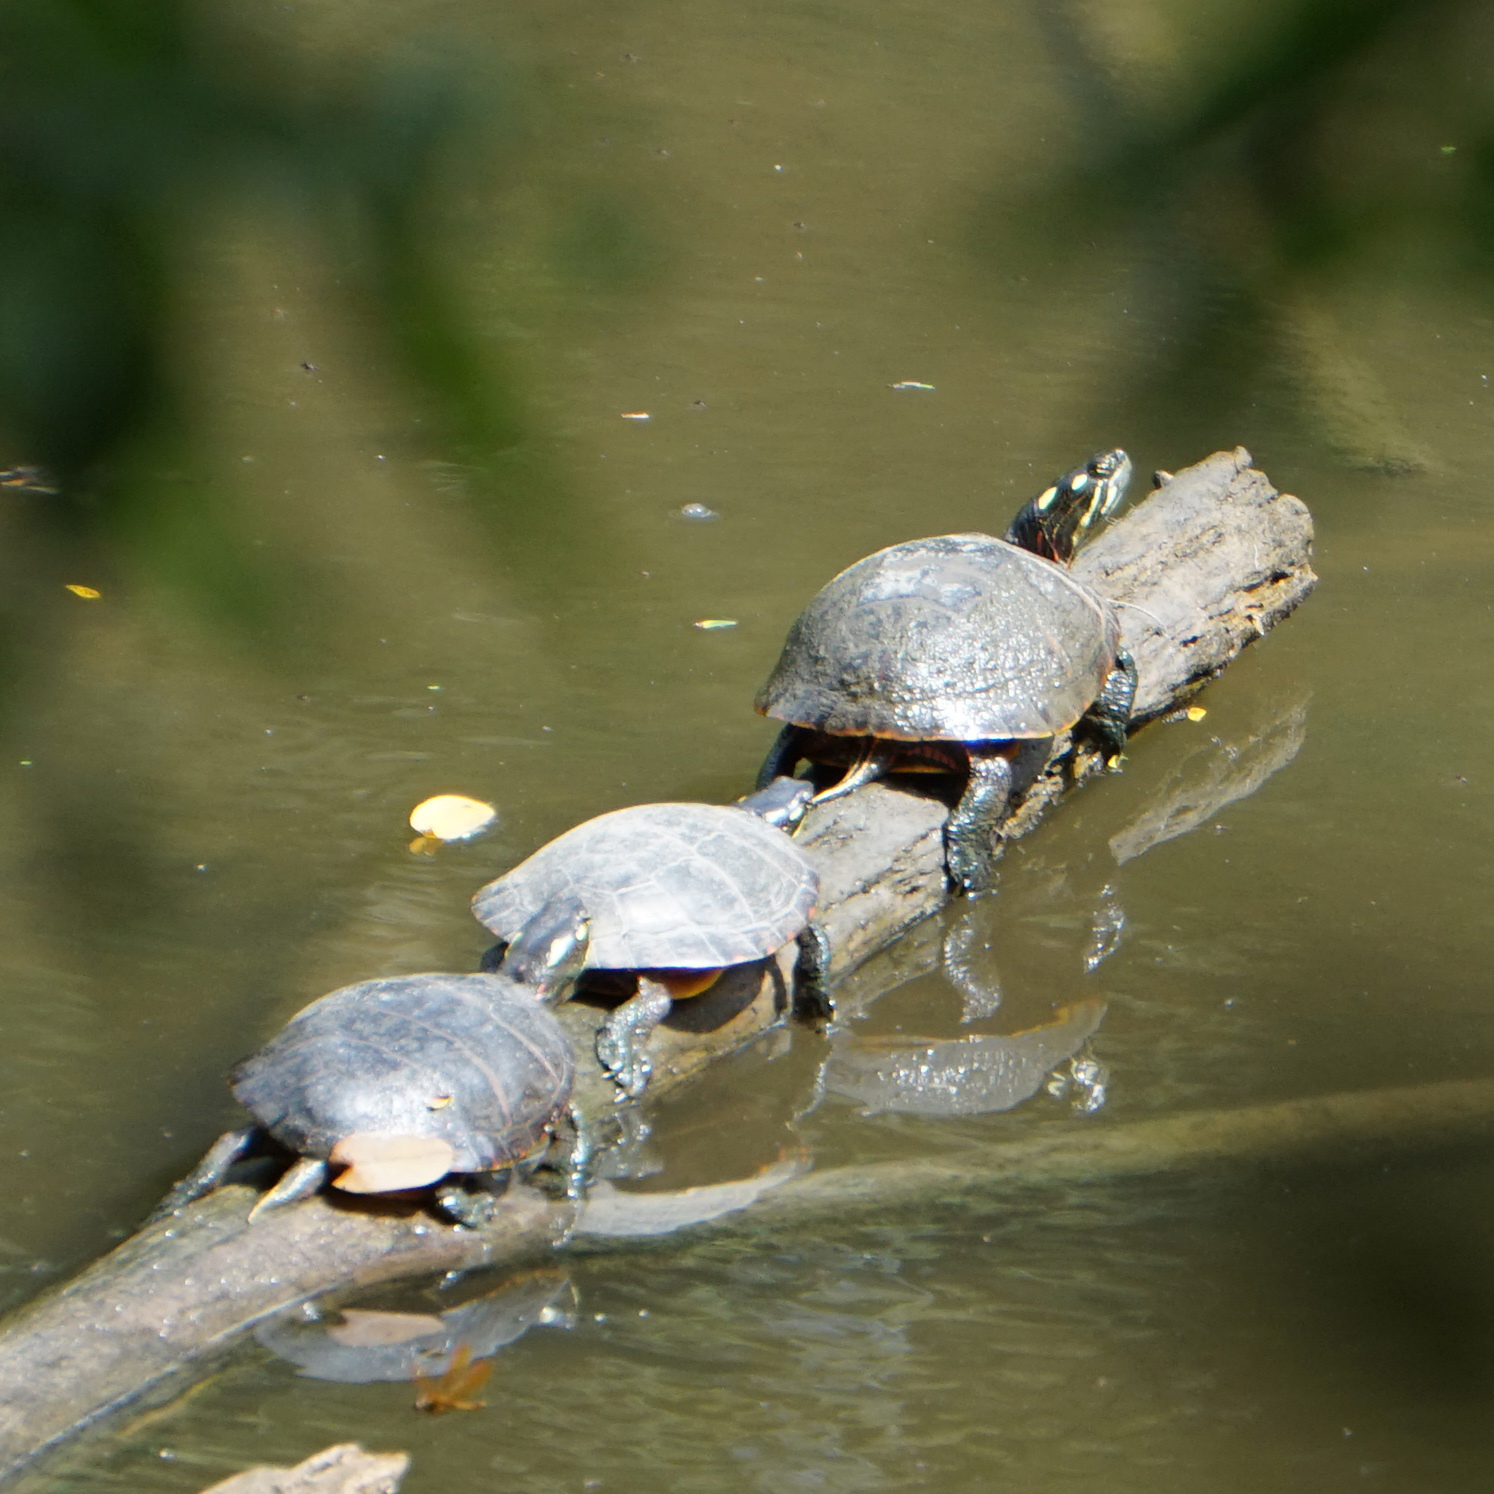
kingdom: Animalia
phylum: Chordata
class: Testudines
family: Emydidae
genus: Chrysemys
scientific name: Chrysemys picta
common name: Painted turtle
